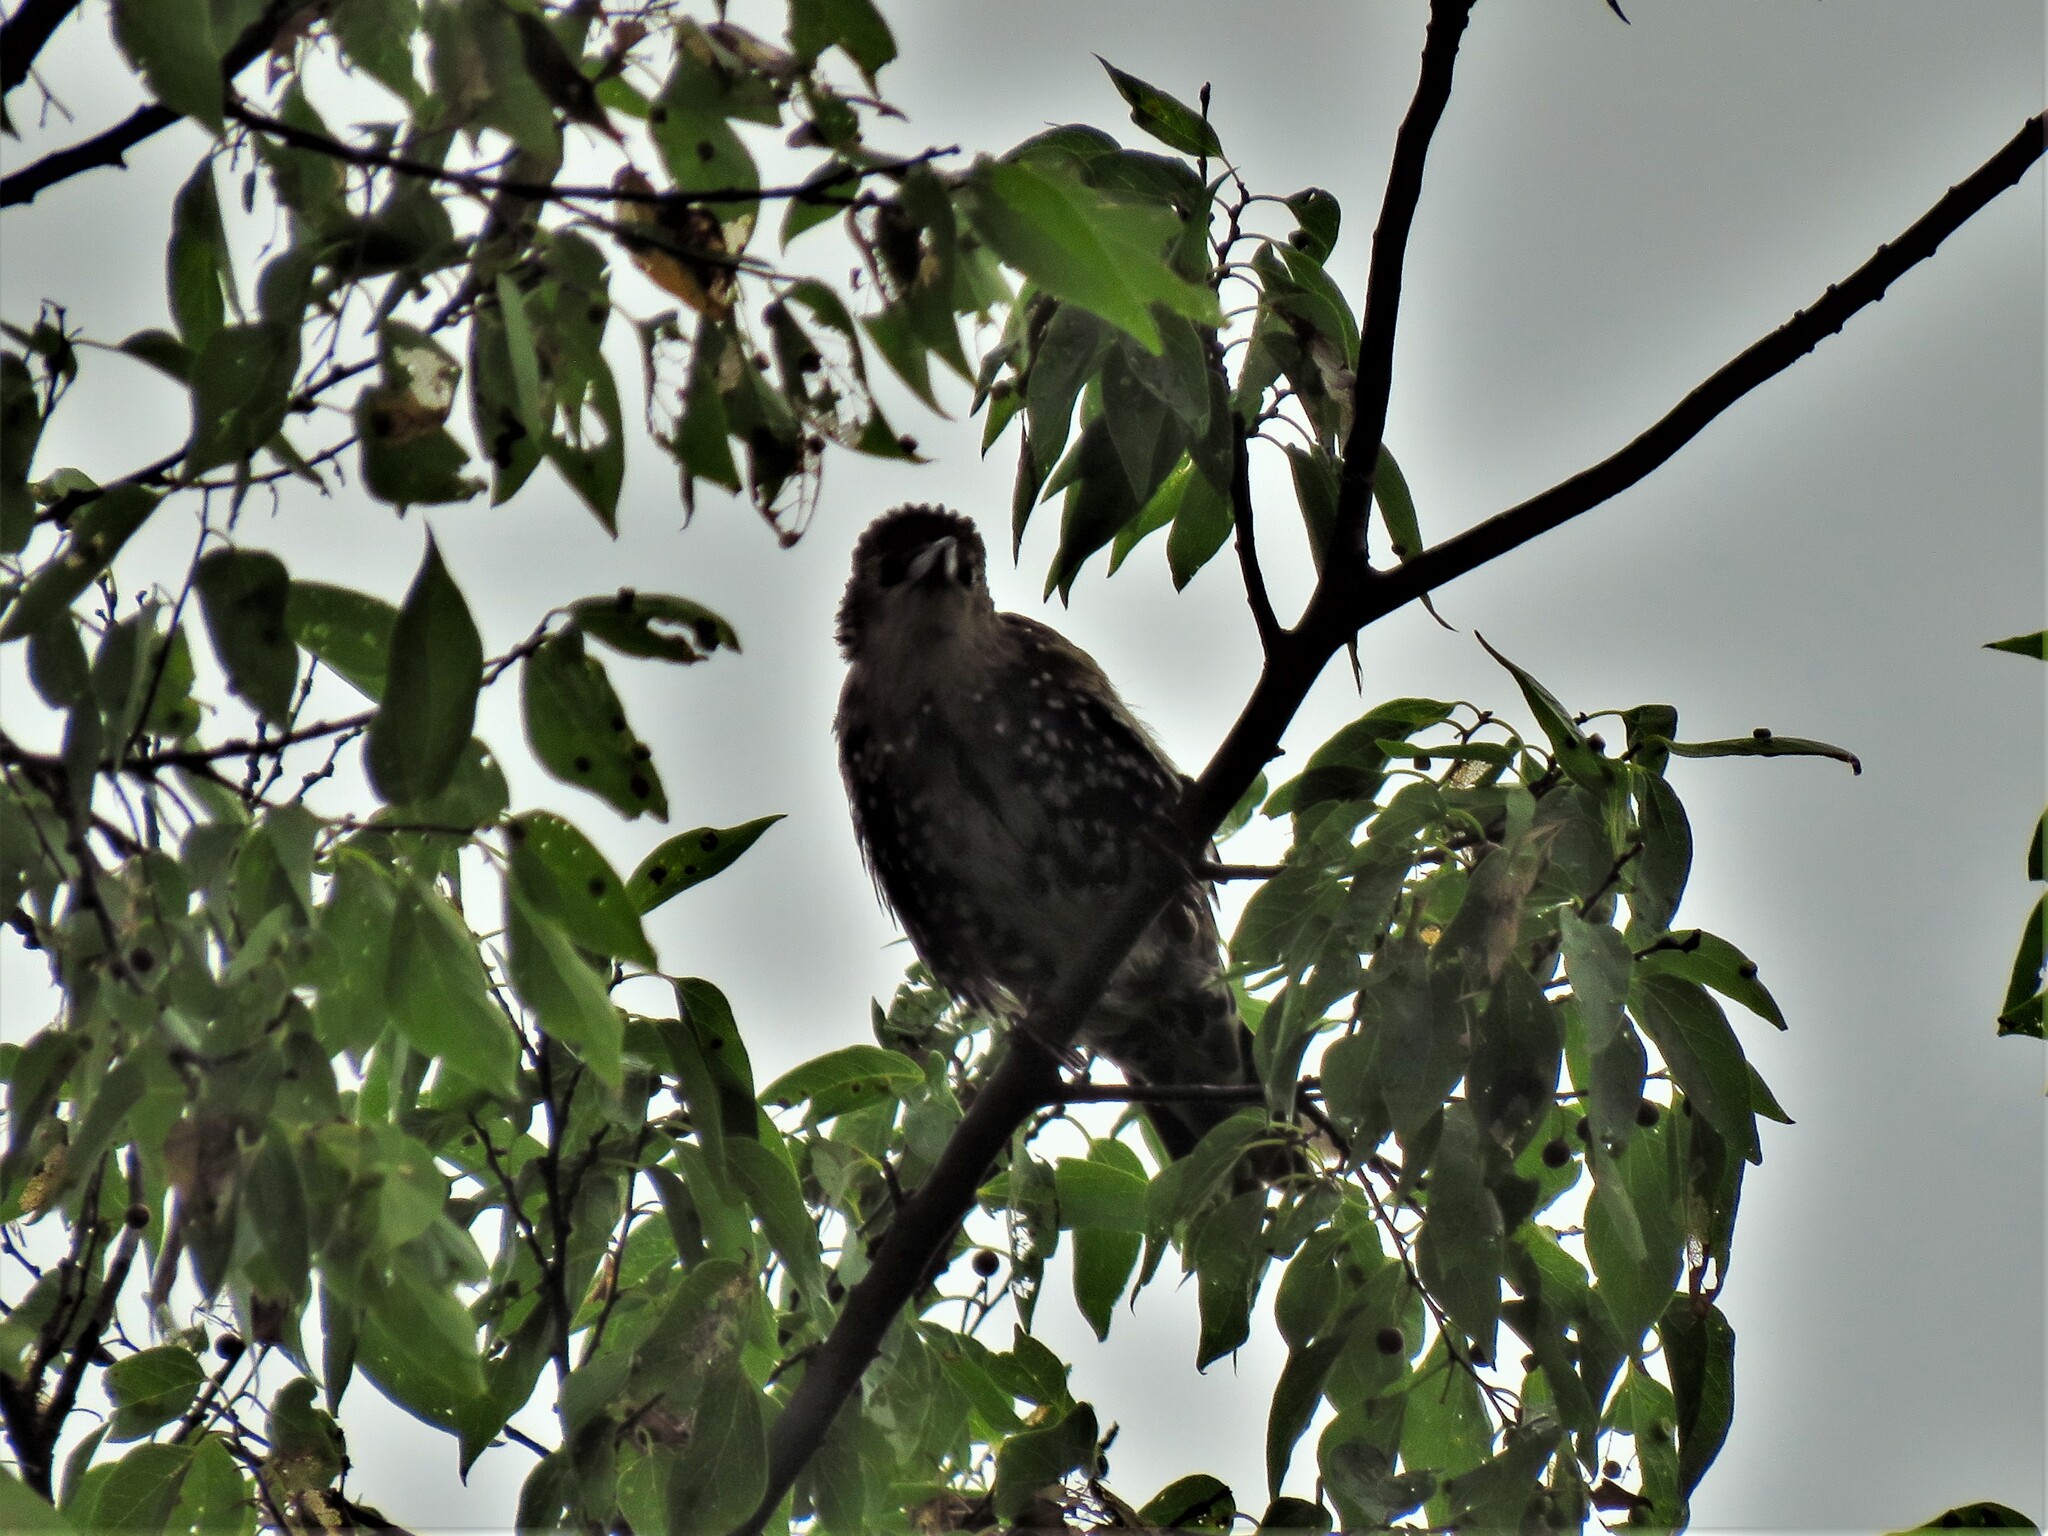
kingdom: Animalia
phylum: Chordata
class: Aves
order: Passeriformes
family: Sturnidae
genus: Sturnus
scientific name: Sturnus vulgaris
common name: Common starling
